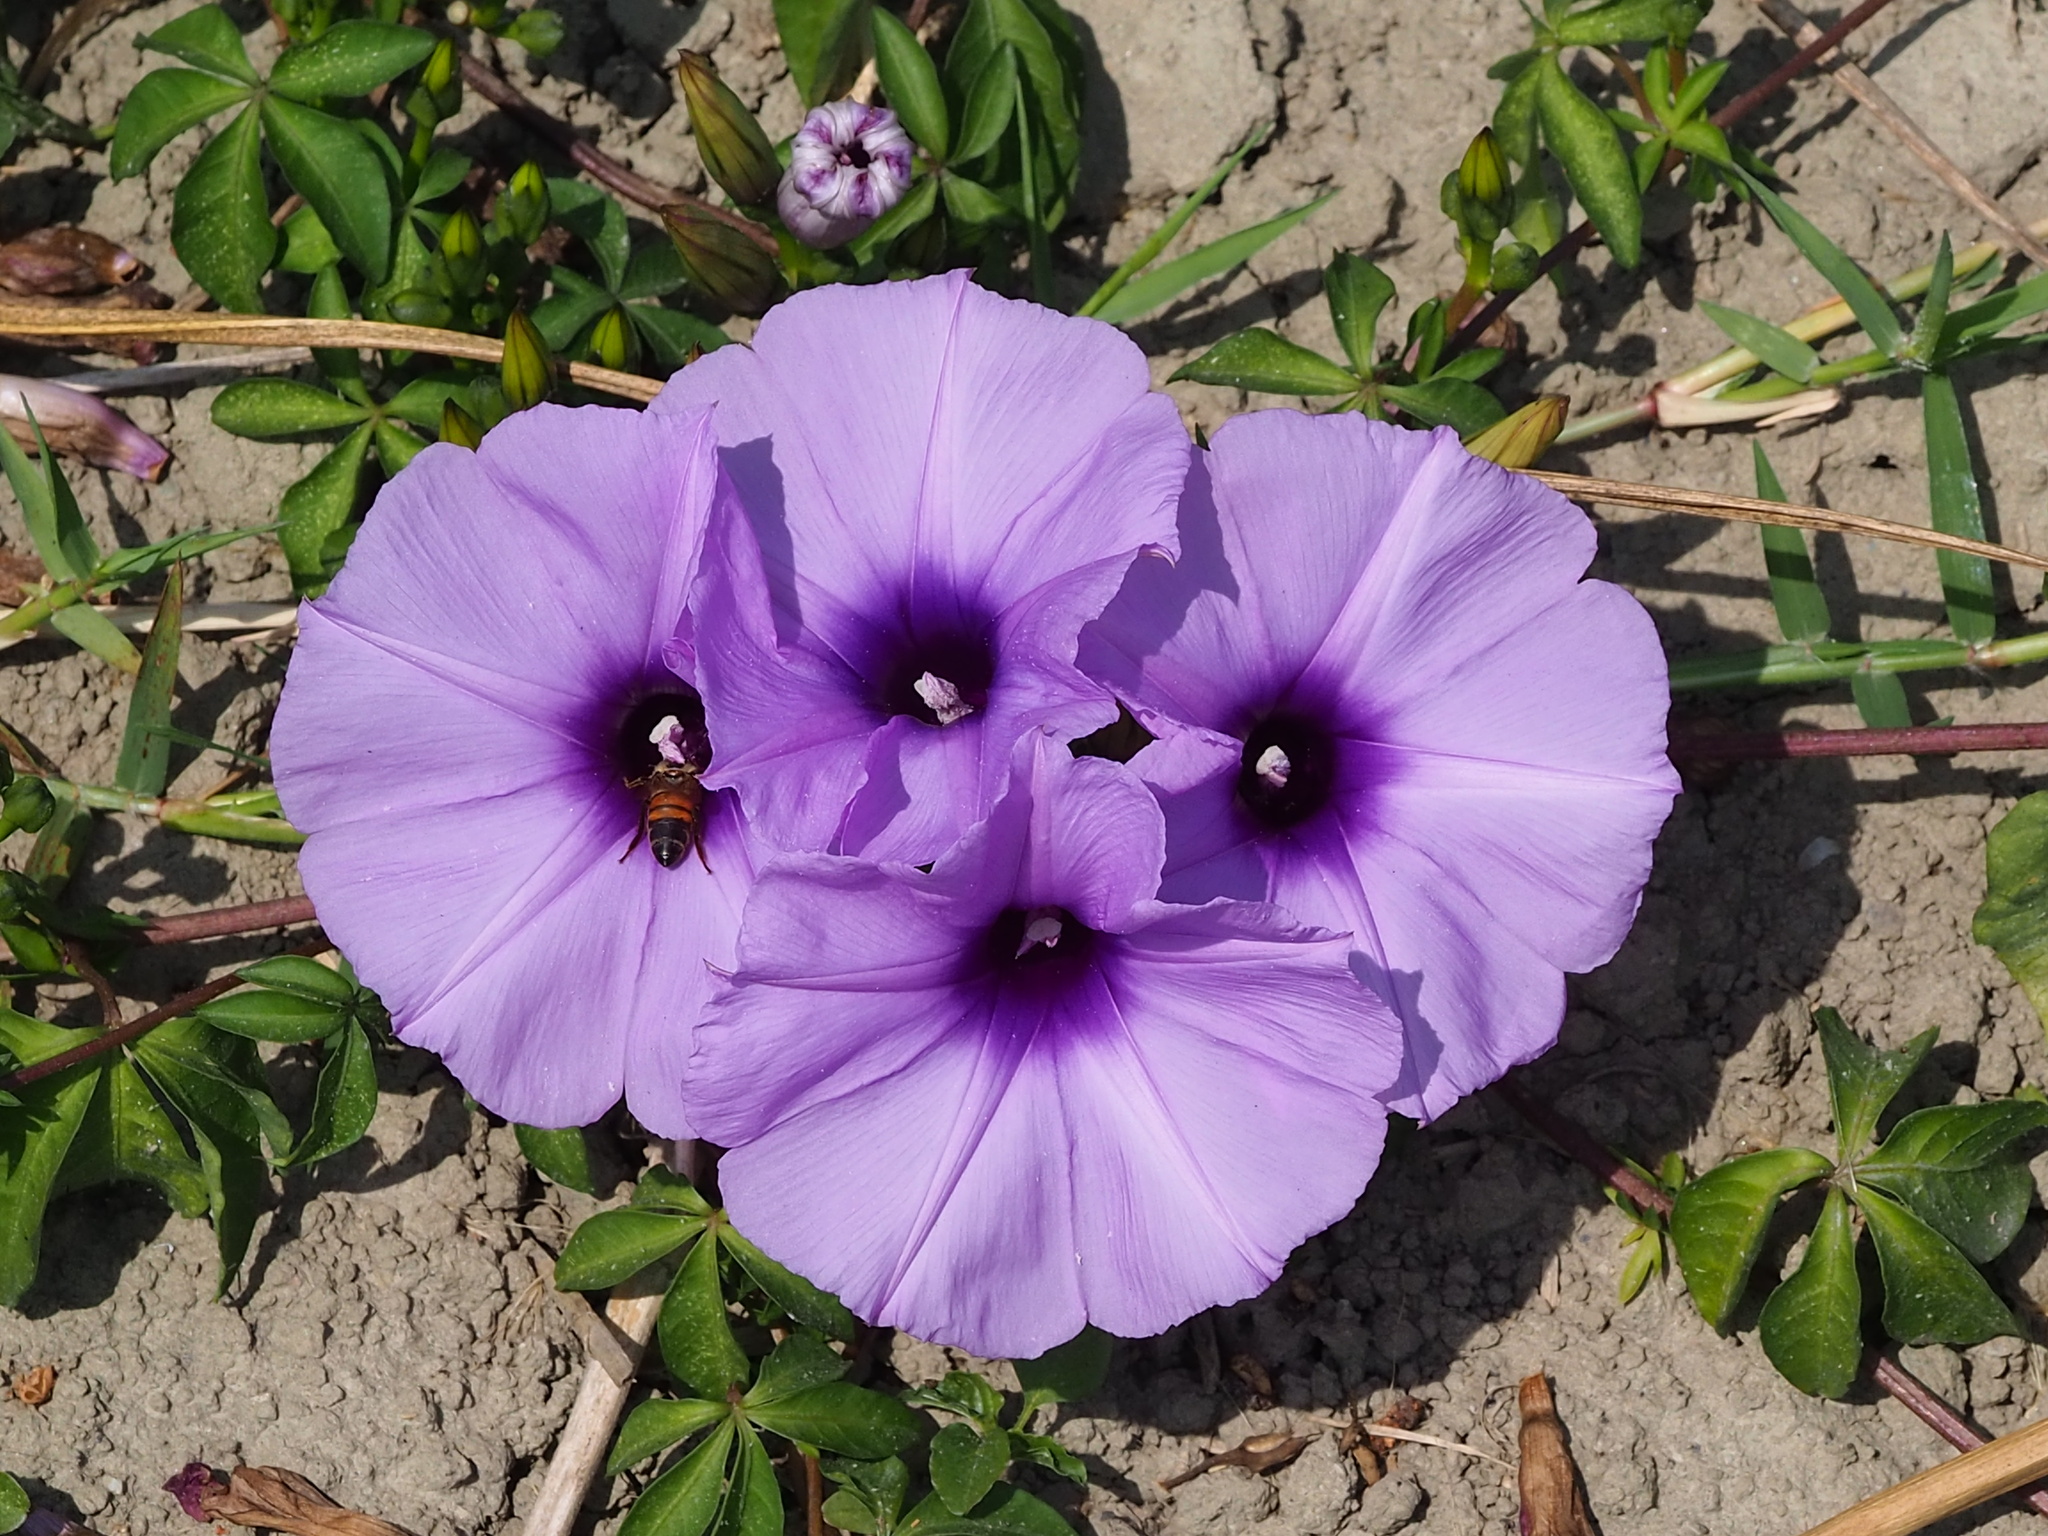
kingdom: Plantae
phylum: Tracheophyta
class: Magnoliopsida
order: Solanales
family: Convolvulaceae
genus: Ipomoea
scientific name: Ipomoea cairica
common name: Mile a minute vine
